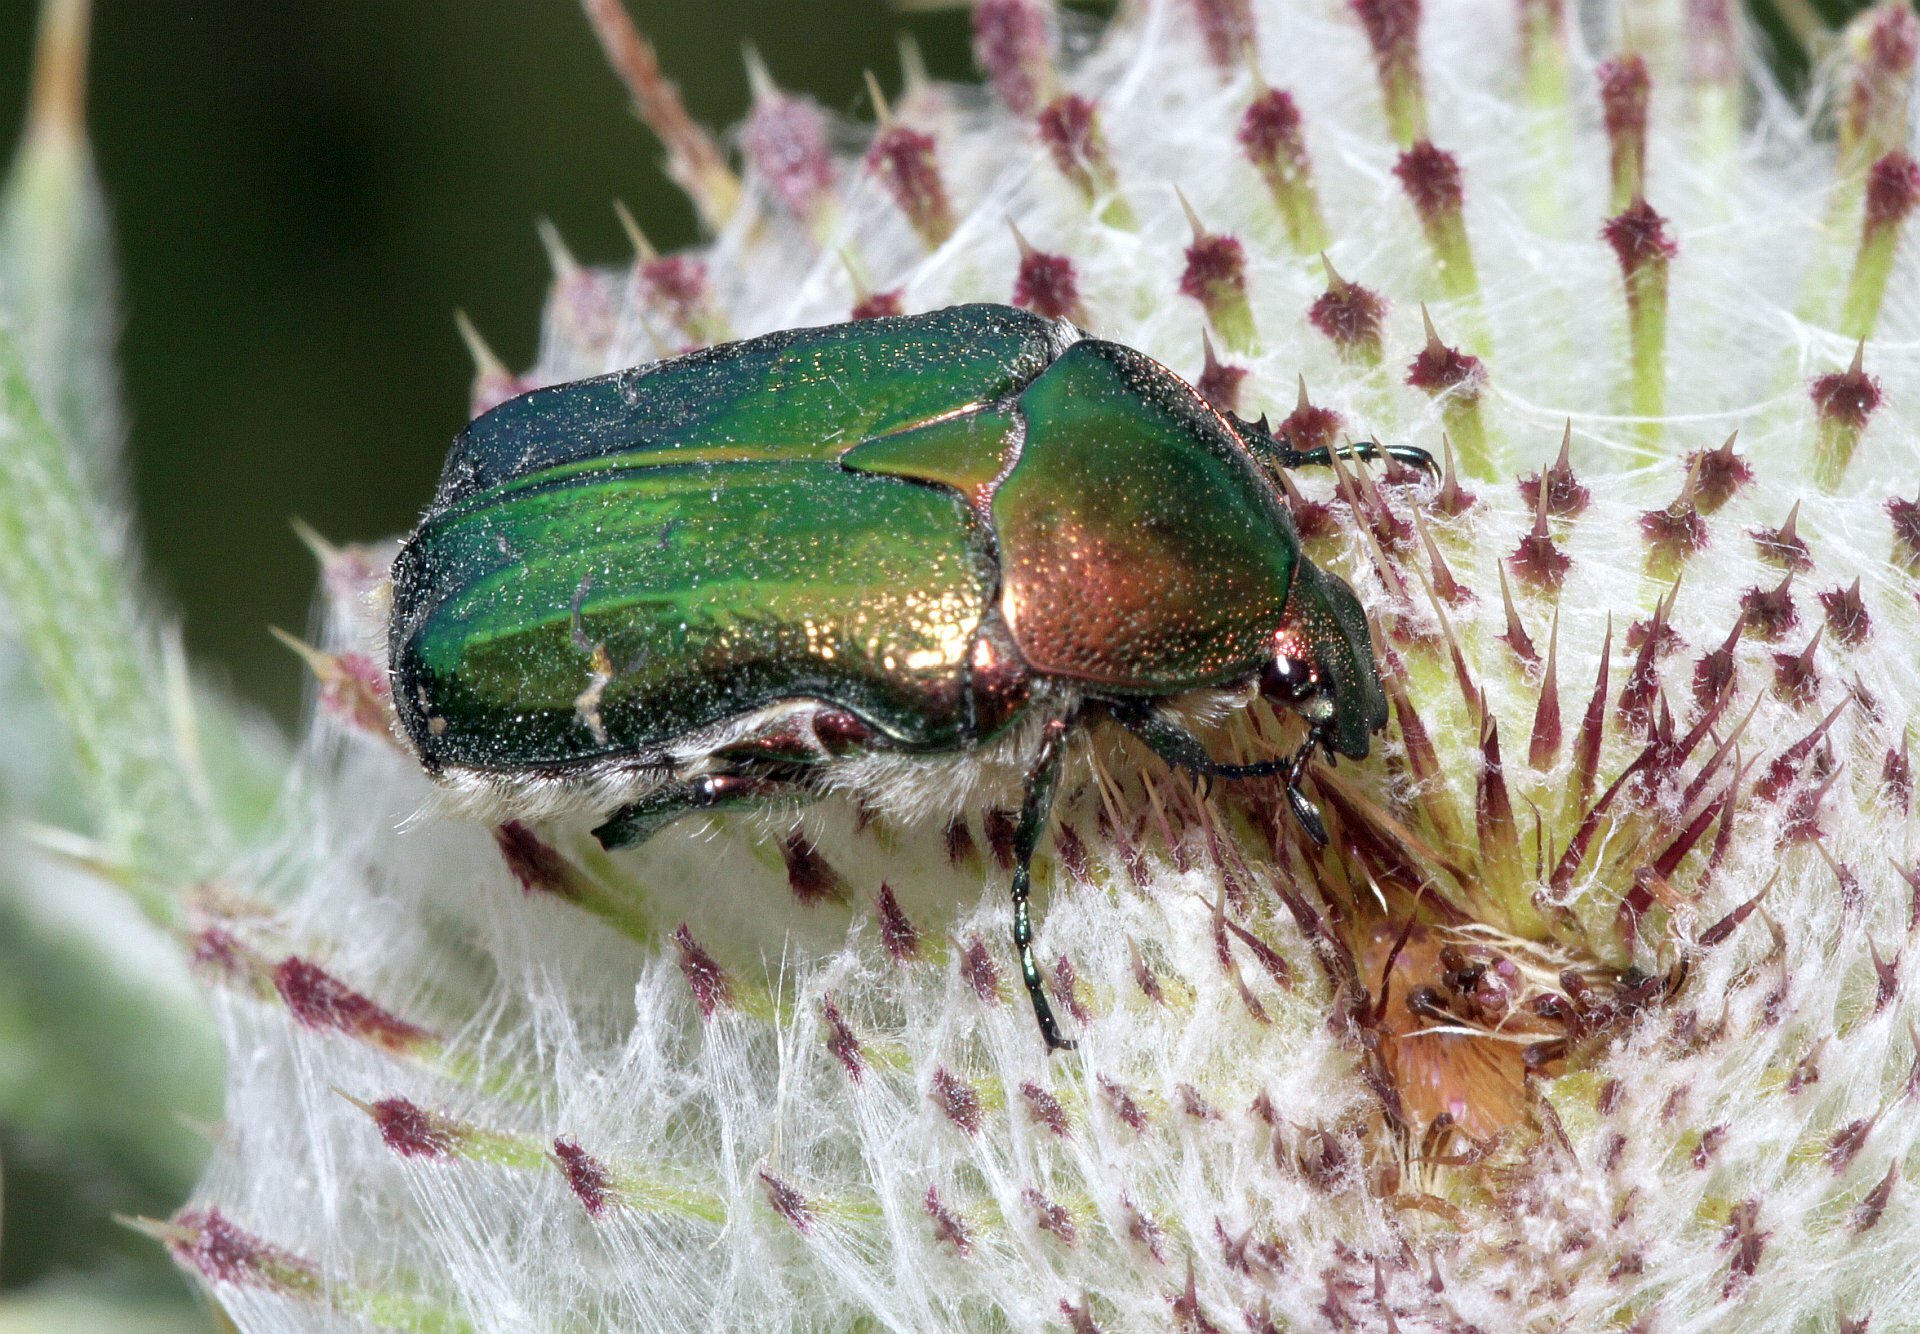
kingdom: Animalia
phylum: Arthropoda
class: Insecta
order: Coleoptera
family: Scarabaeidae
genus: Cetonia
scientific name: Cetonia aurata
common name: Rose chafer
